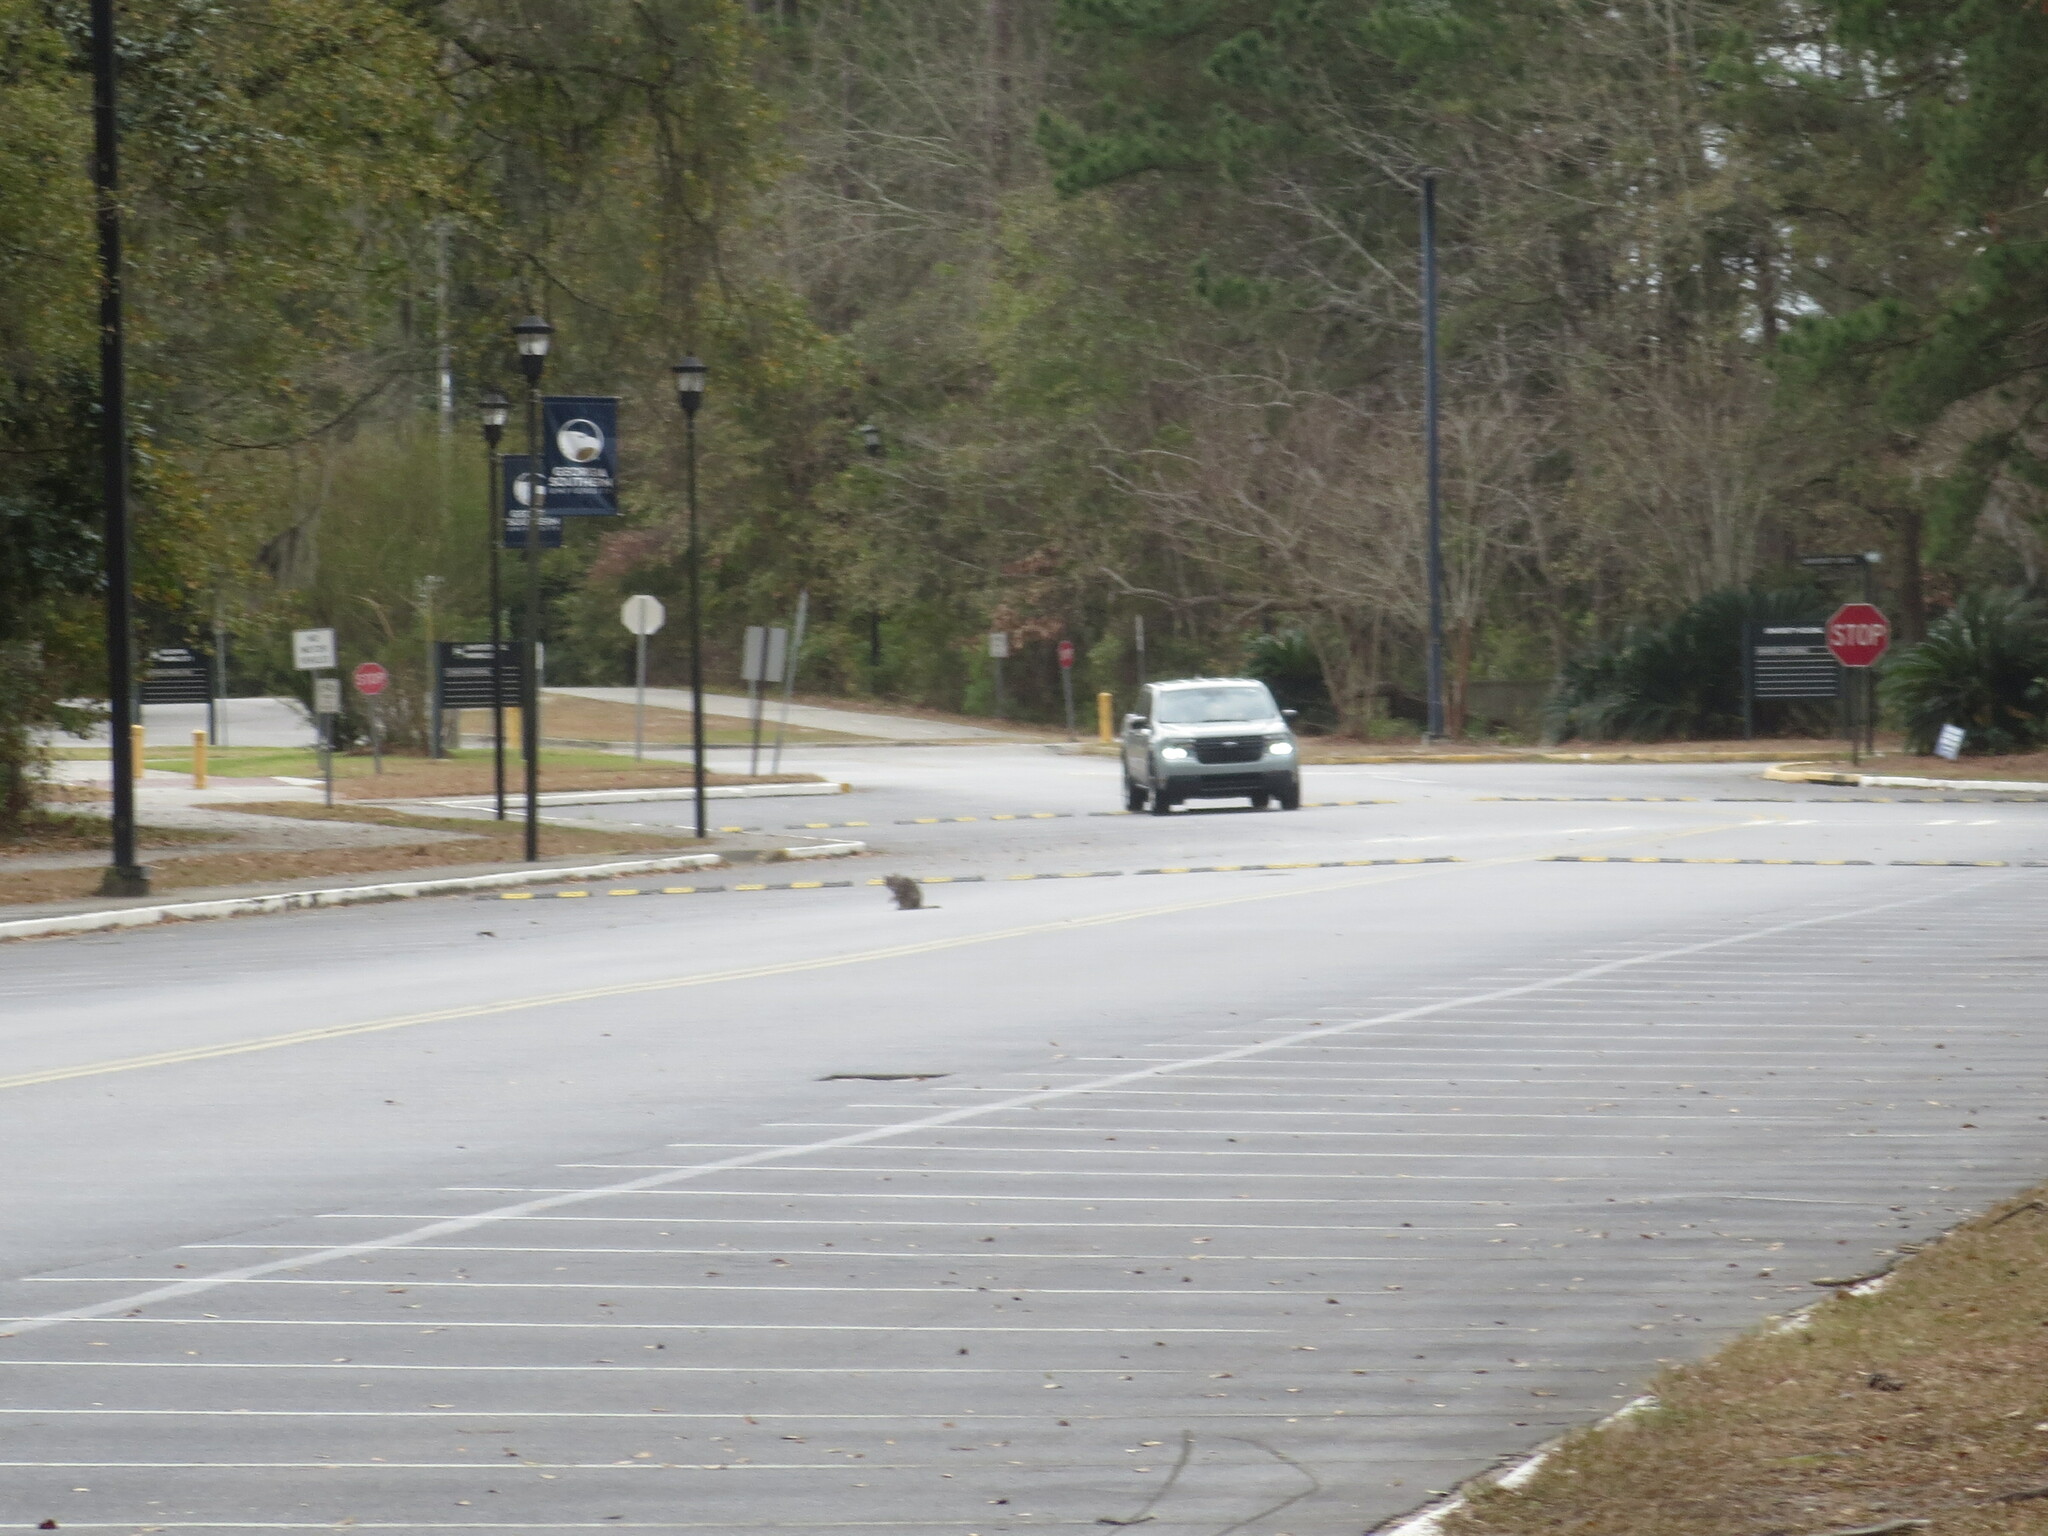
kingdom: Animalia
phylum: Chordata
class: Mammalia
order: Carnivora
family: Felidae
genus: Felis
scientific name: Felis catus
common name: Domestic cat
